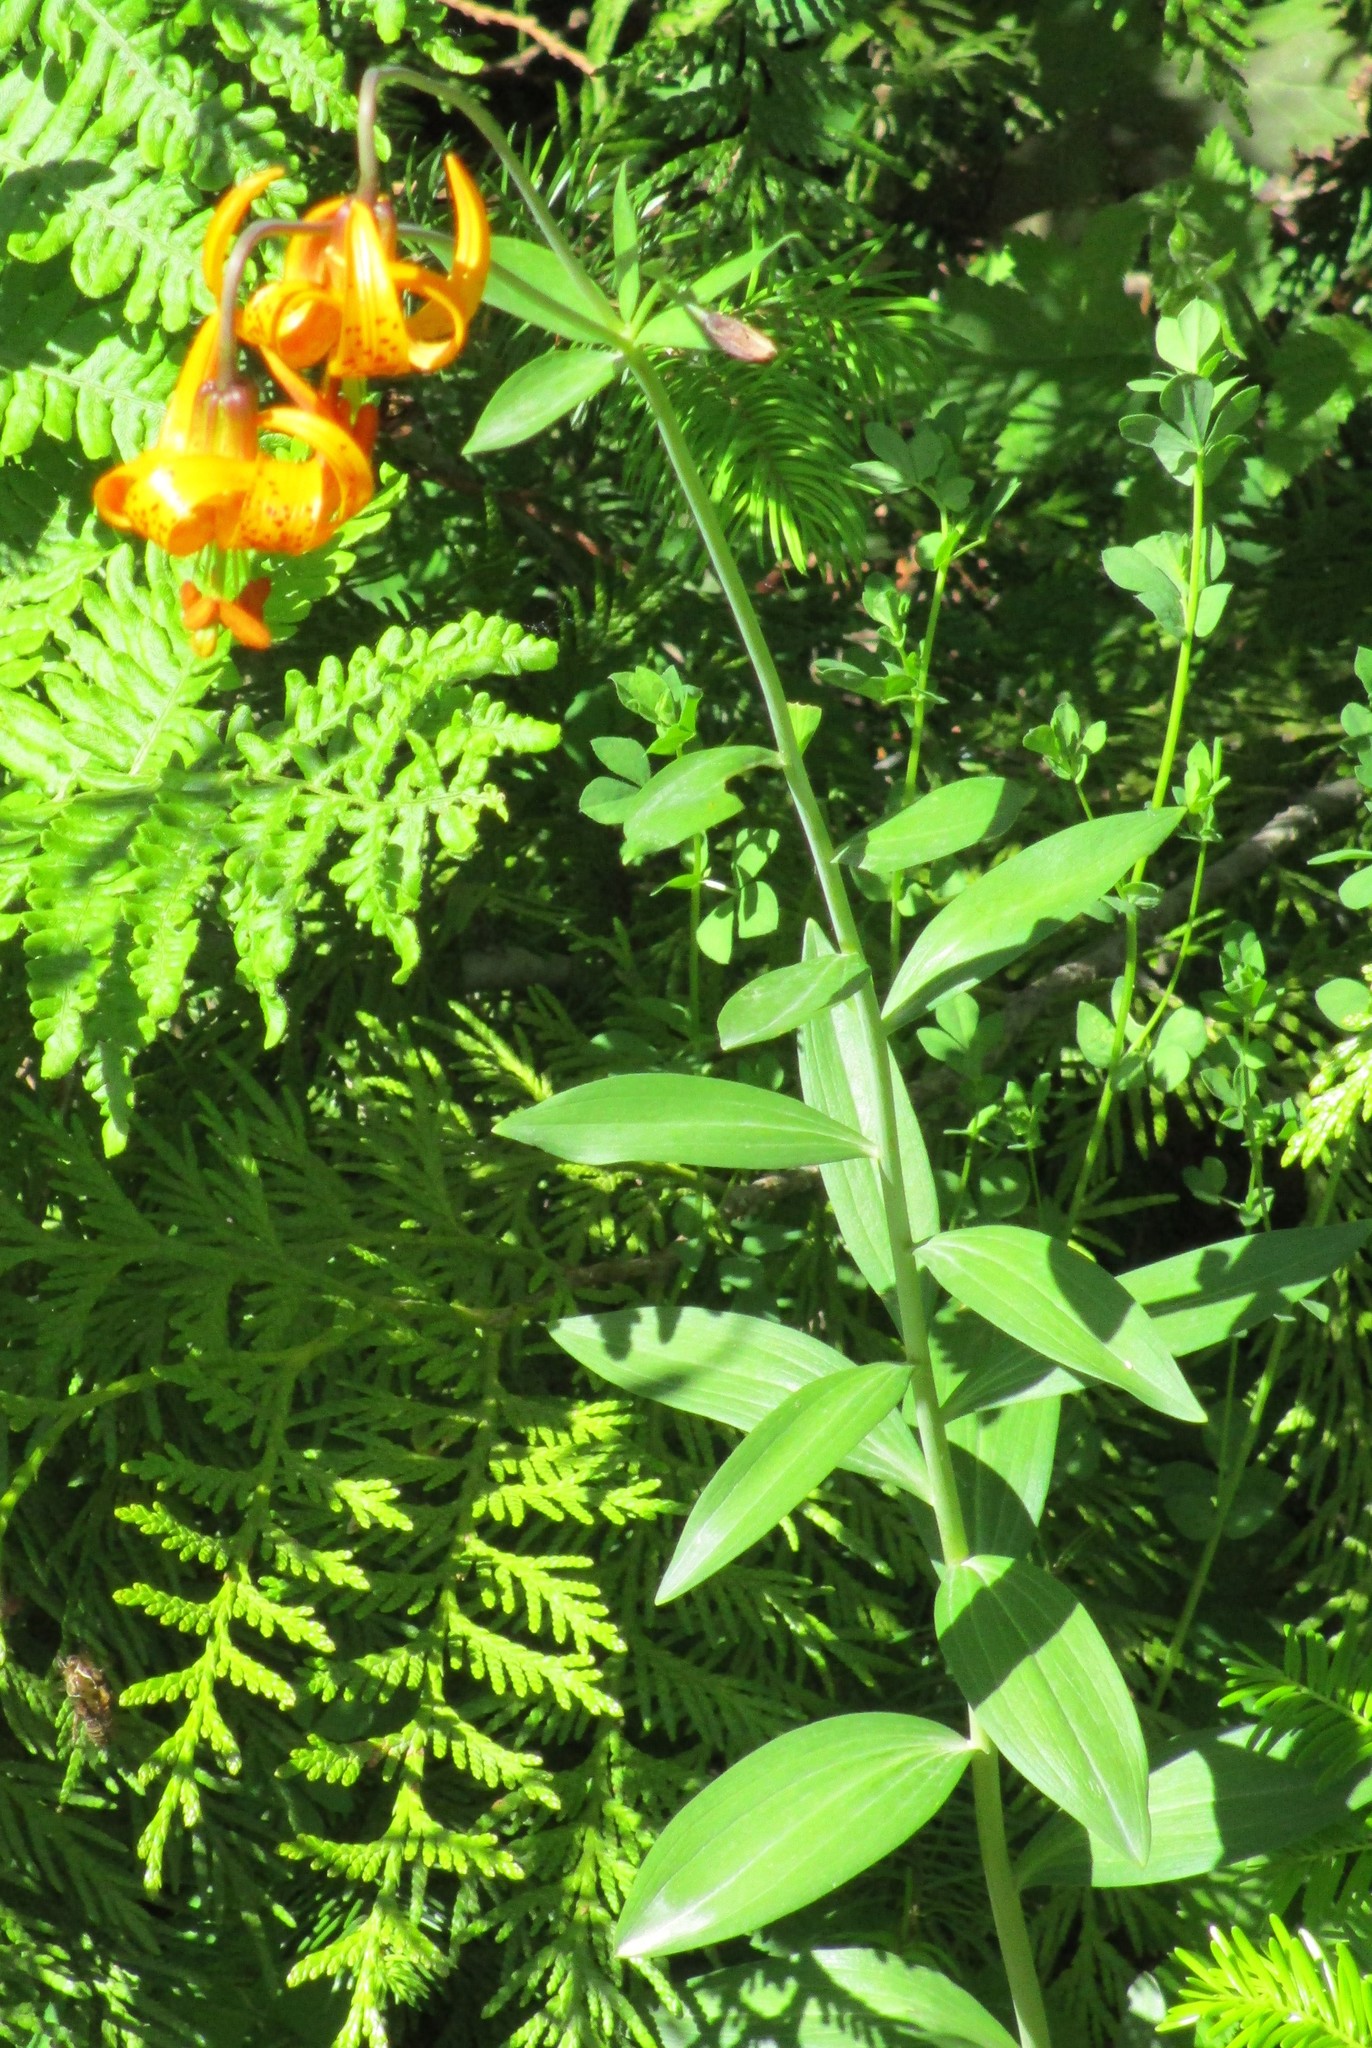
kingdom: Plantae
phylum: Tracheophyta
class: Liliopsida
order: Liliales
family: Liliaceae
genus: Lilium
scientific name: Lilium columbianum
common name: Columbia lily
